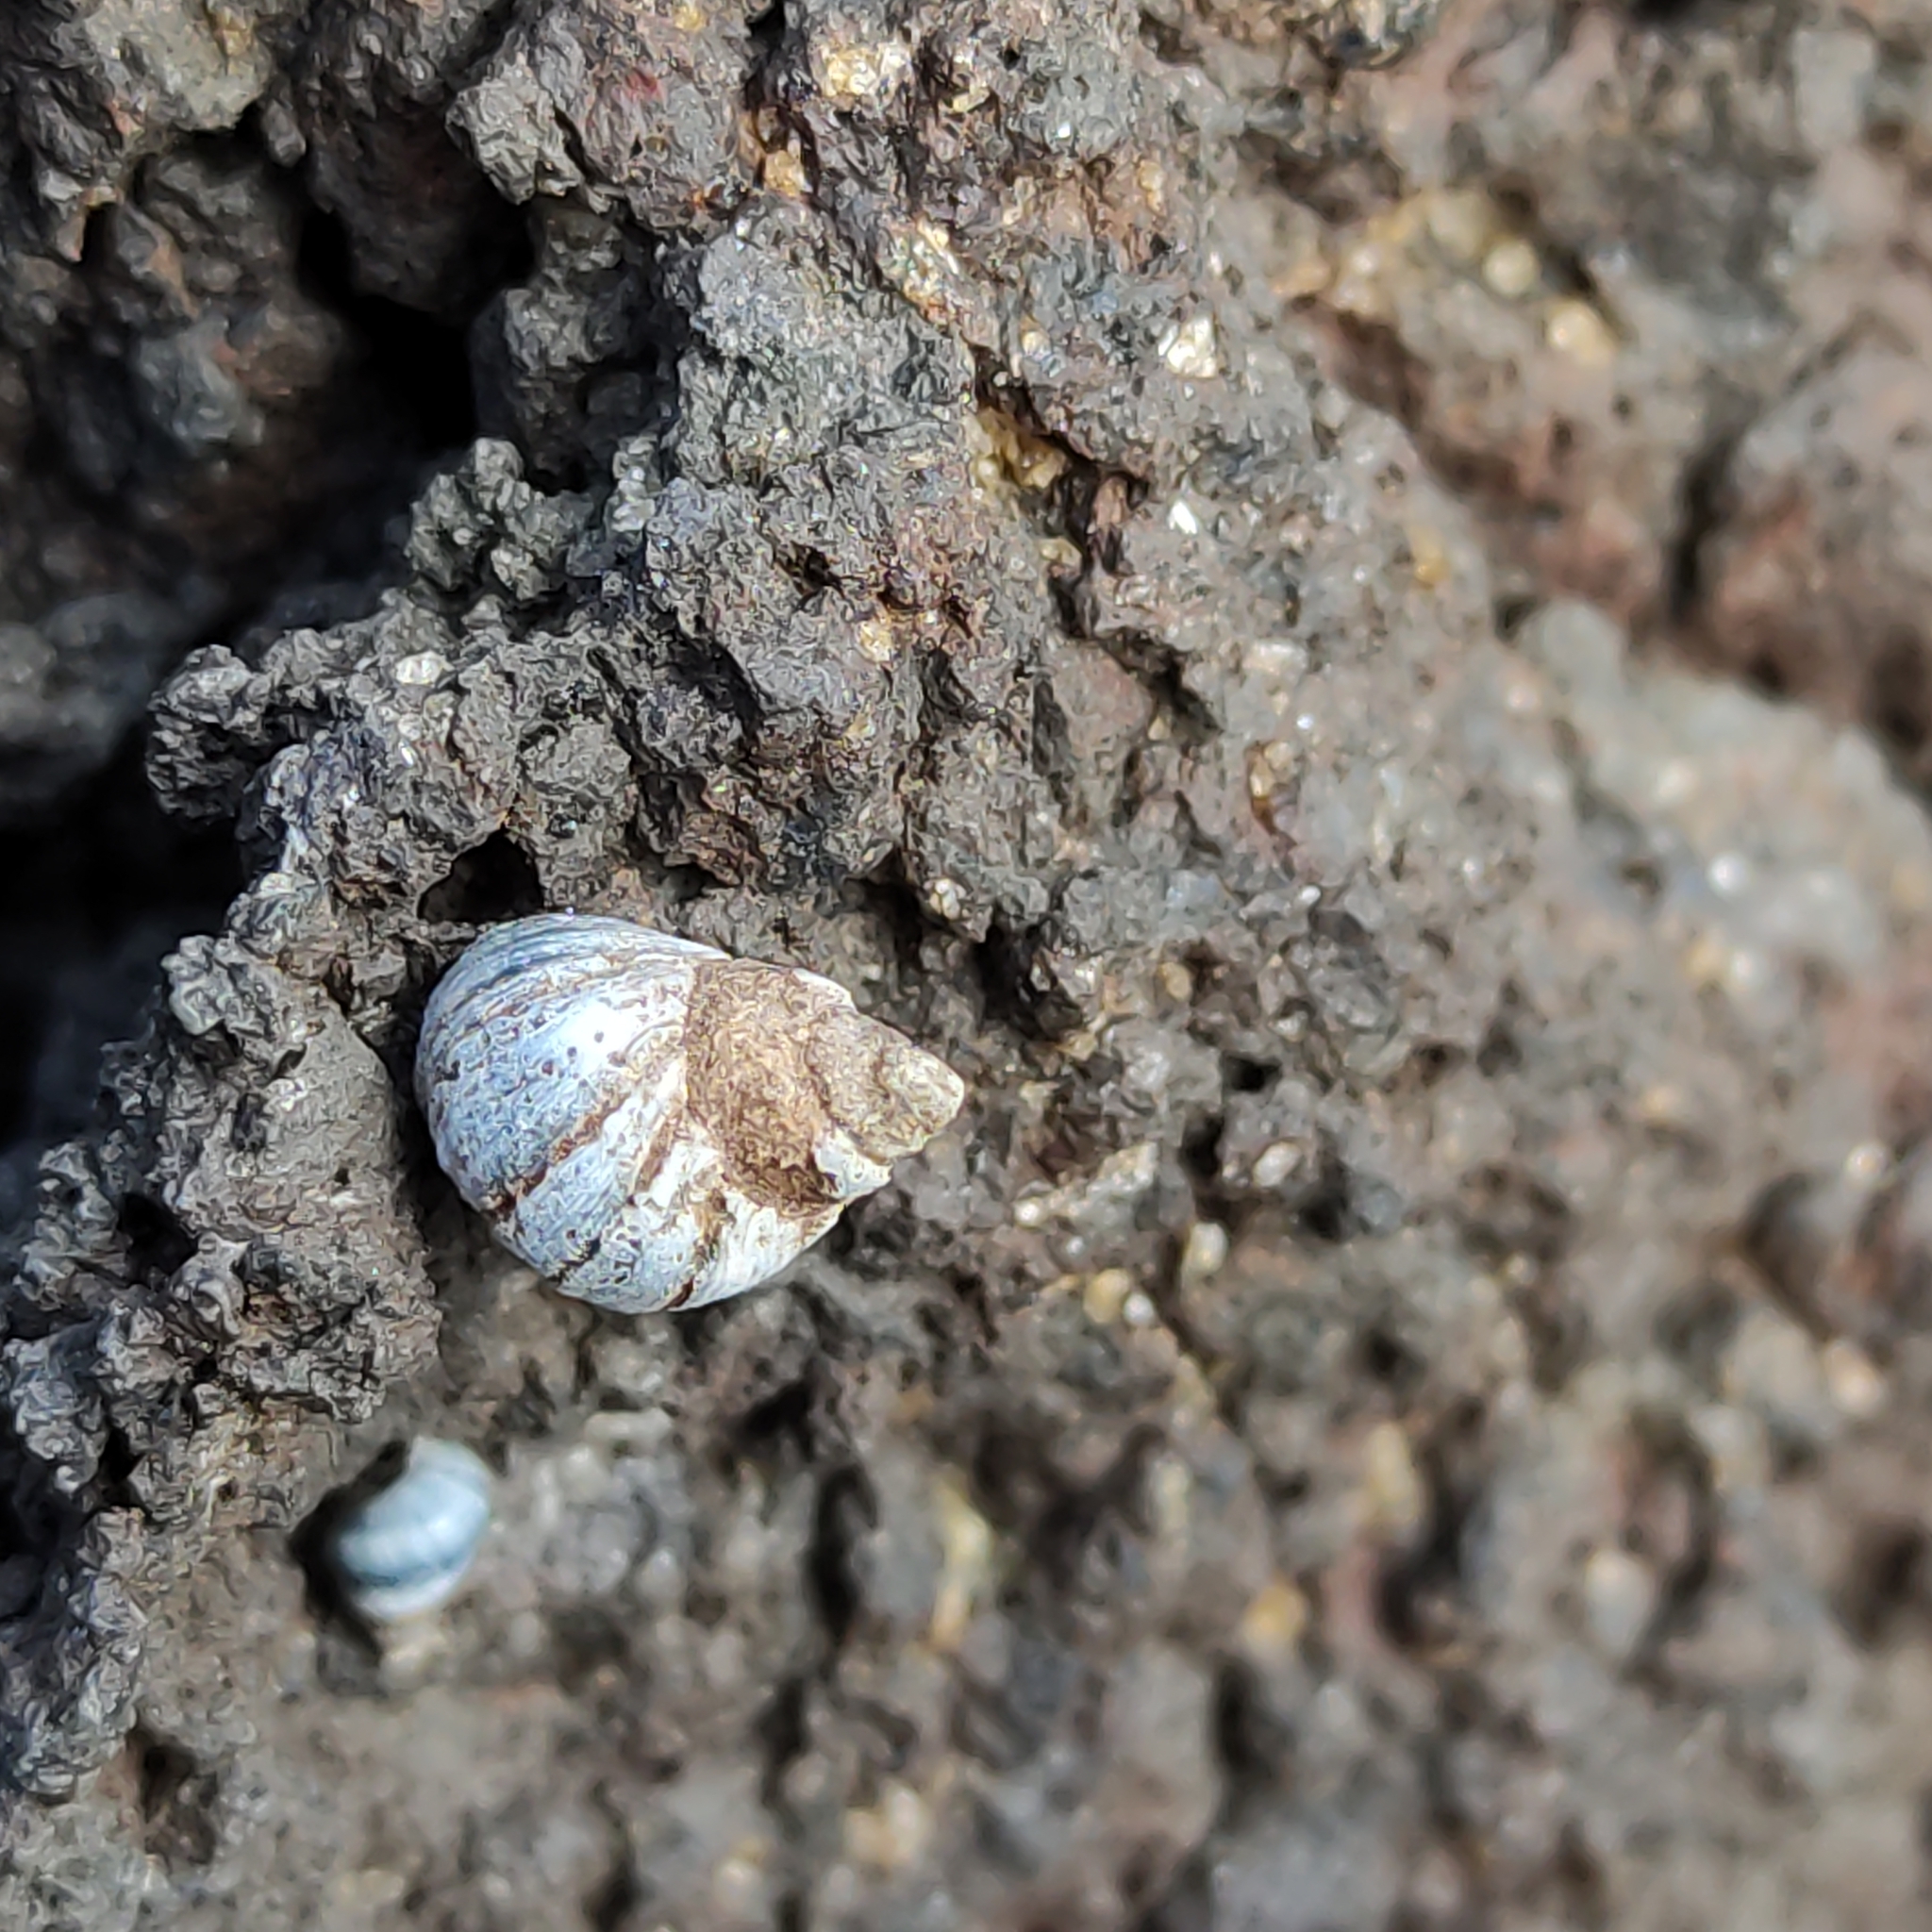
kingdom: Animalia
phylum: Mollusca
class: Gastropoda
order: Littorinimorpha
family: Littorinidae
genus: Austrolittorina
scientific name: Austrolittorina antipodum
